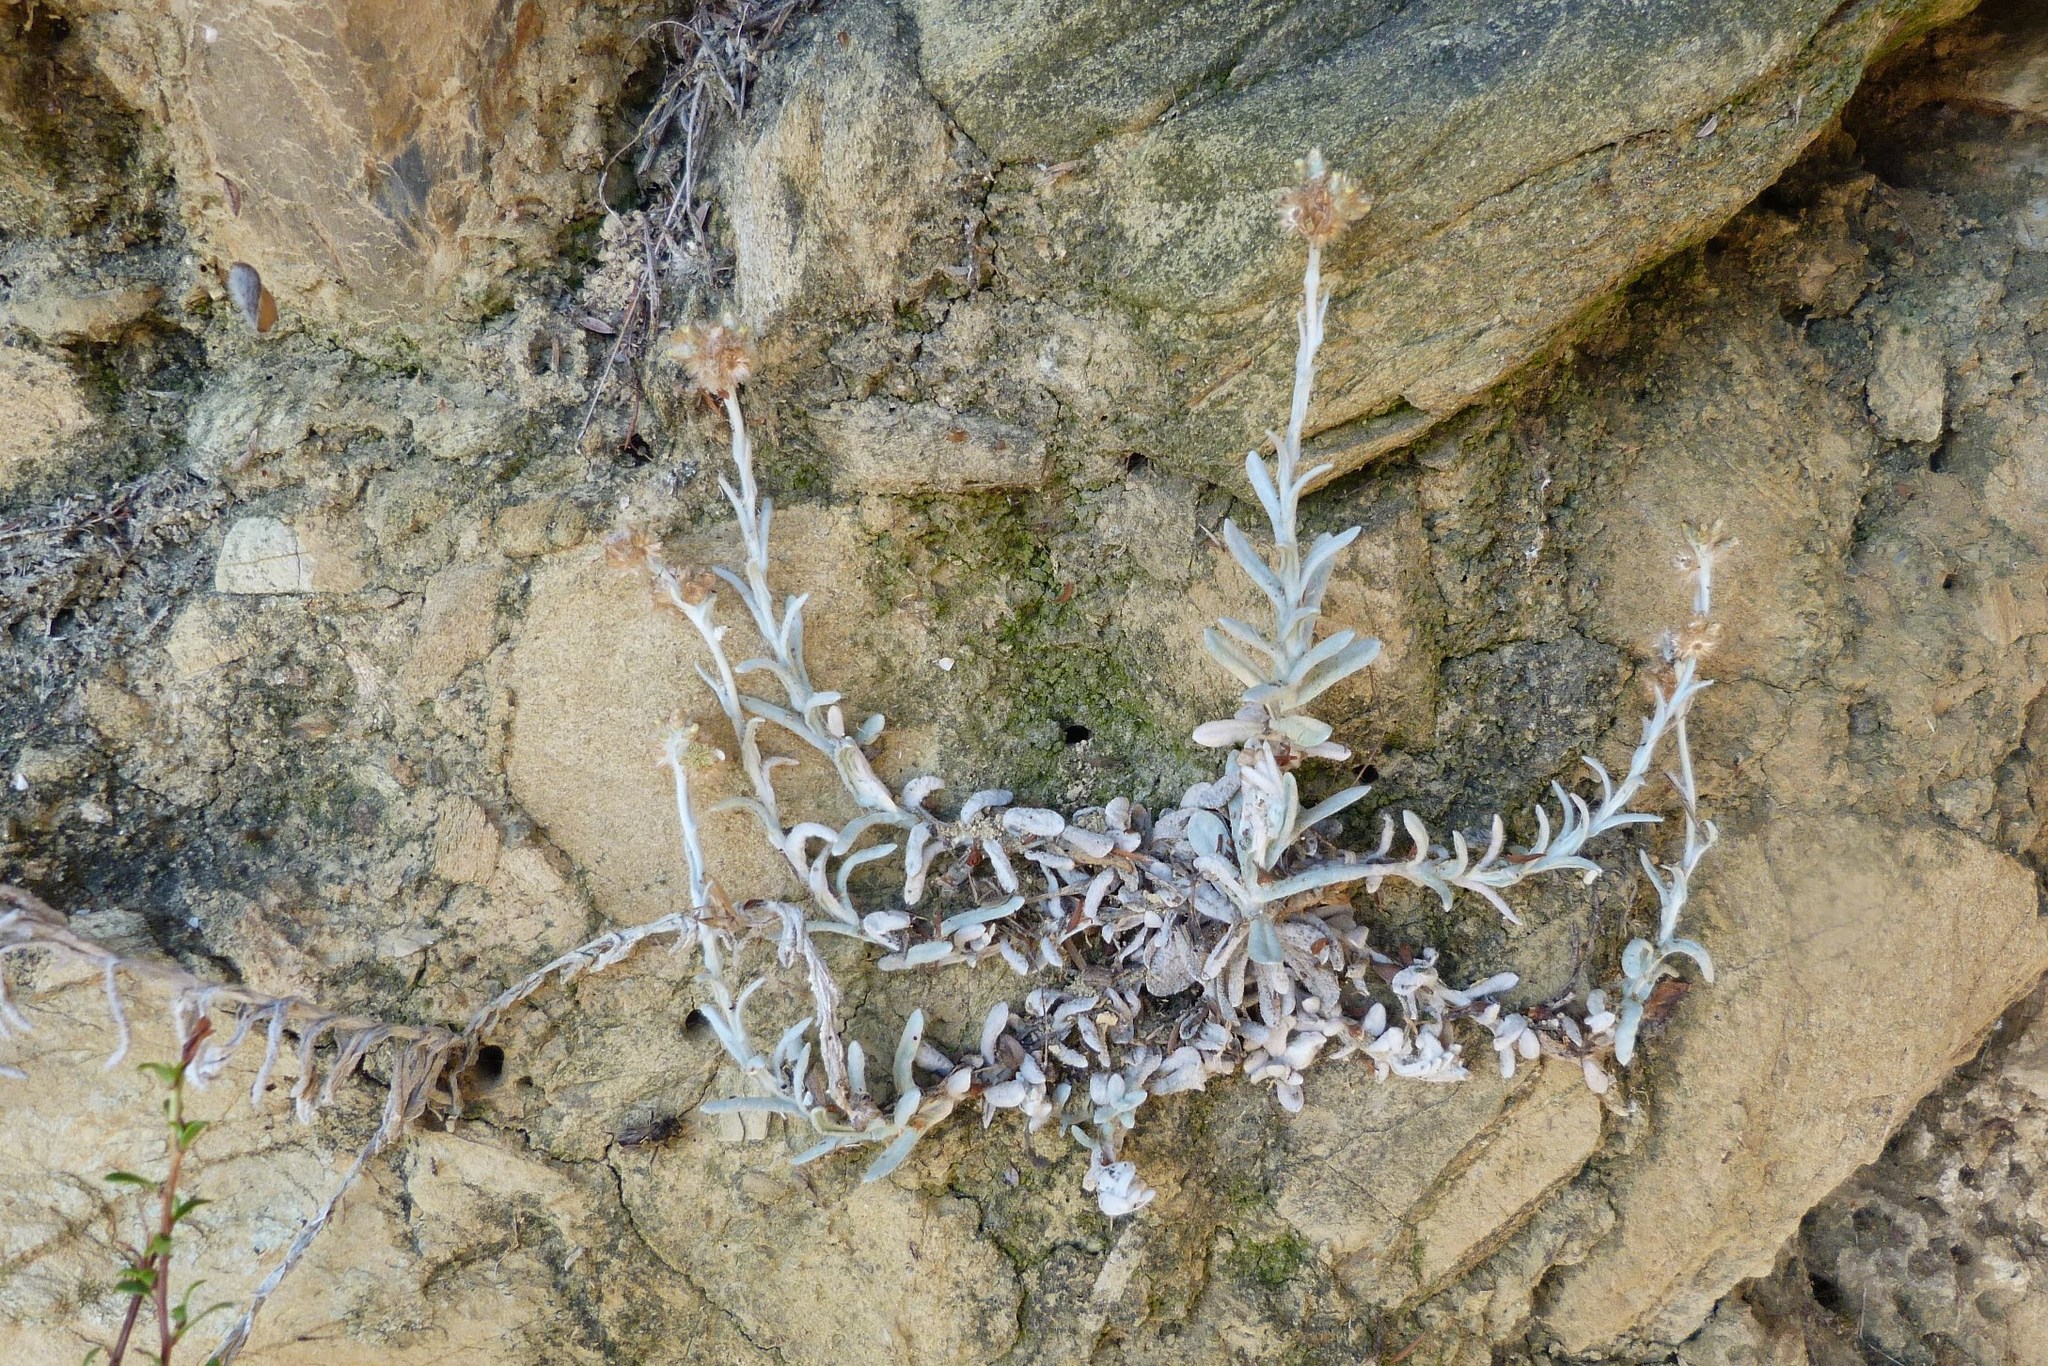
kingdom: Plantae
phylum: Tracheophyta
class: Magnoliopsida
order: Asterales
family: Asteraceae
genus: Helichrysum
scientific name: Helichrysum luteoalbum
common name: Daisy
